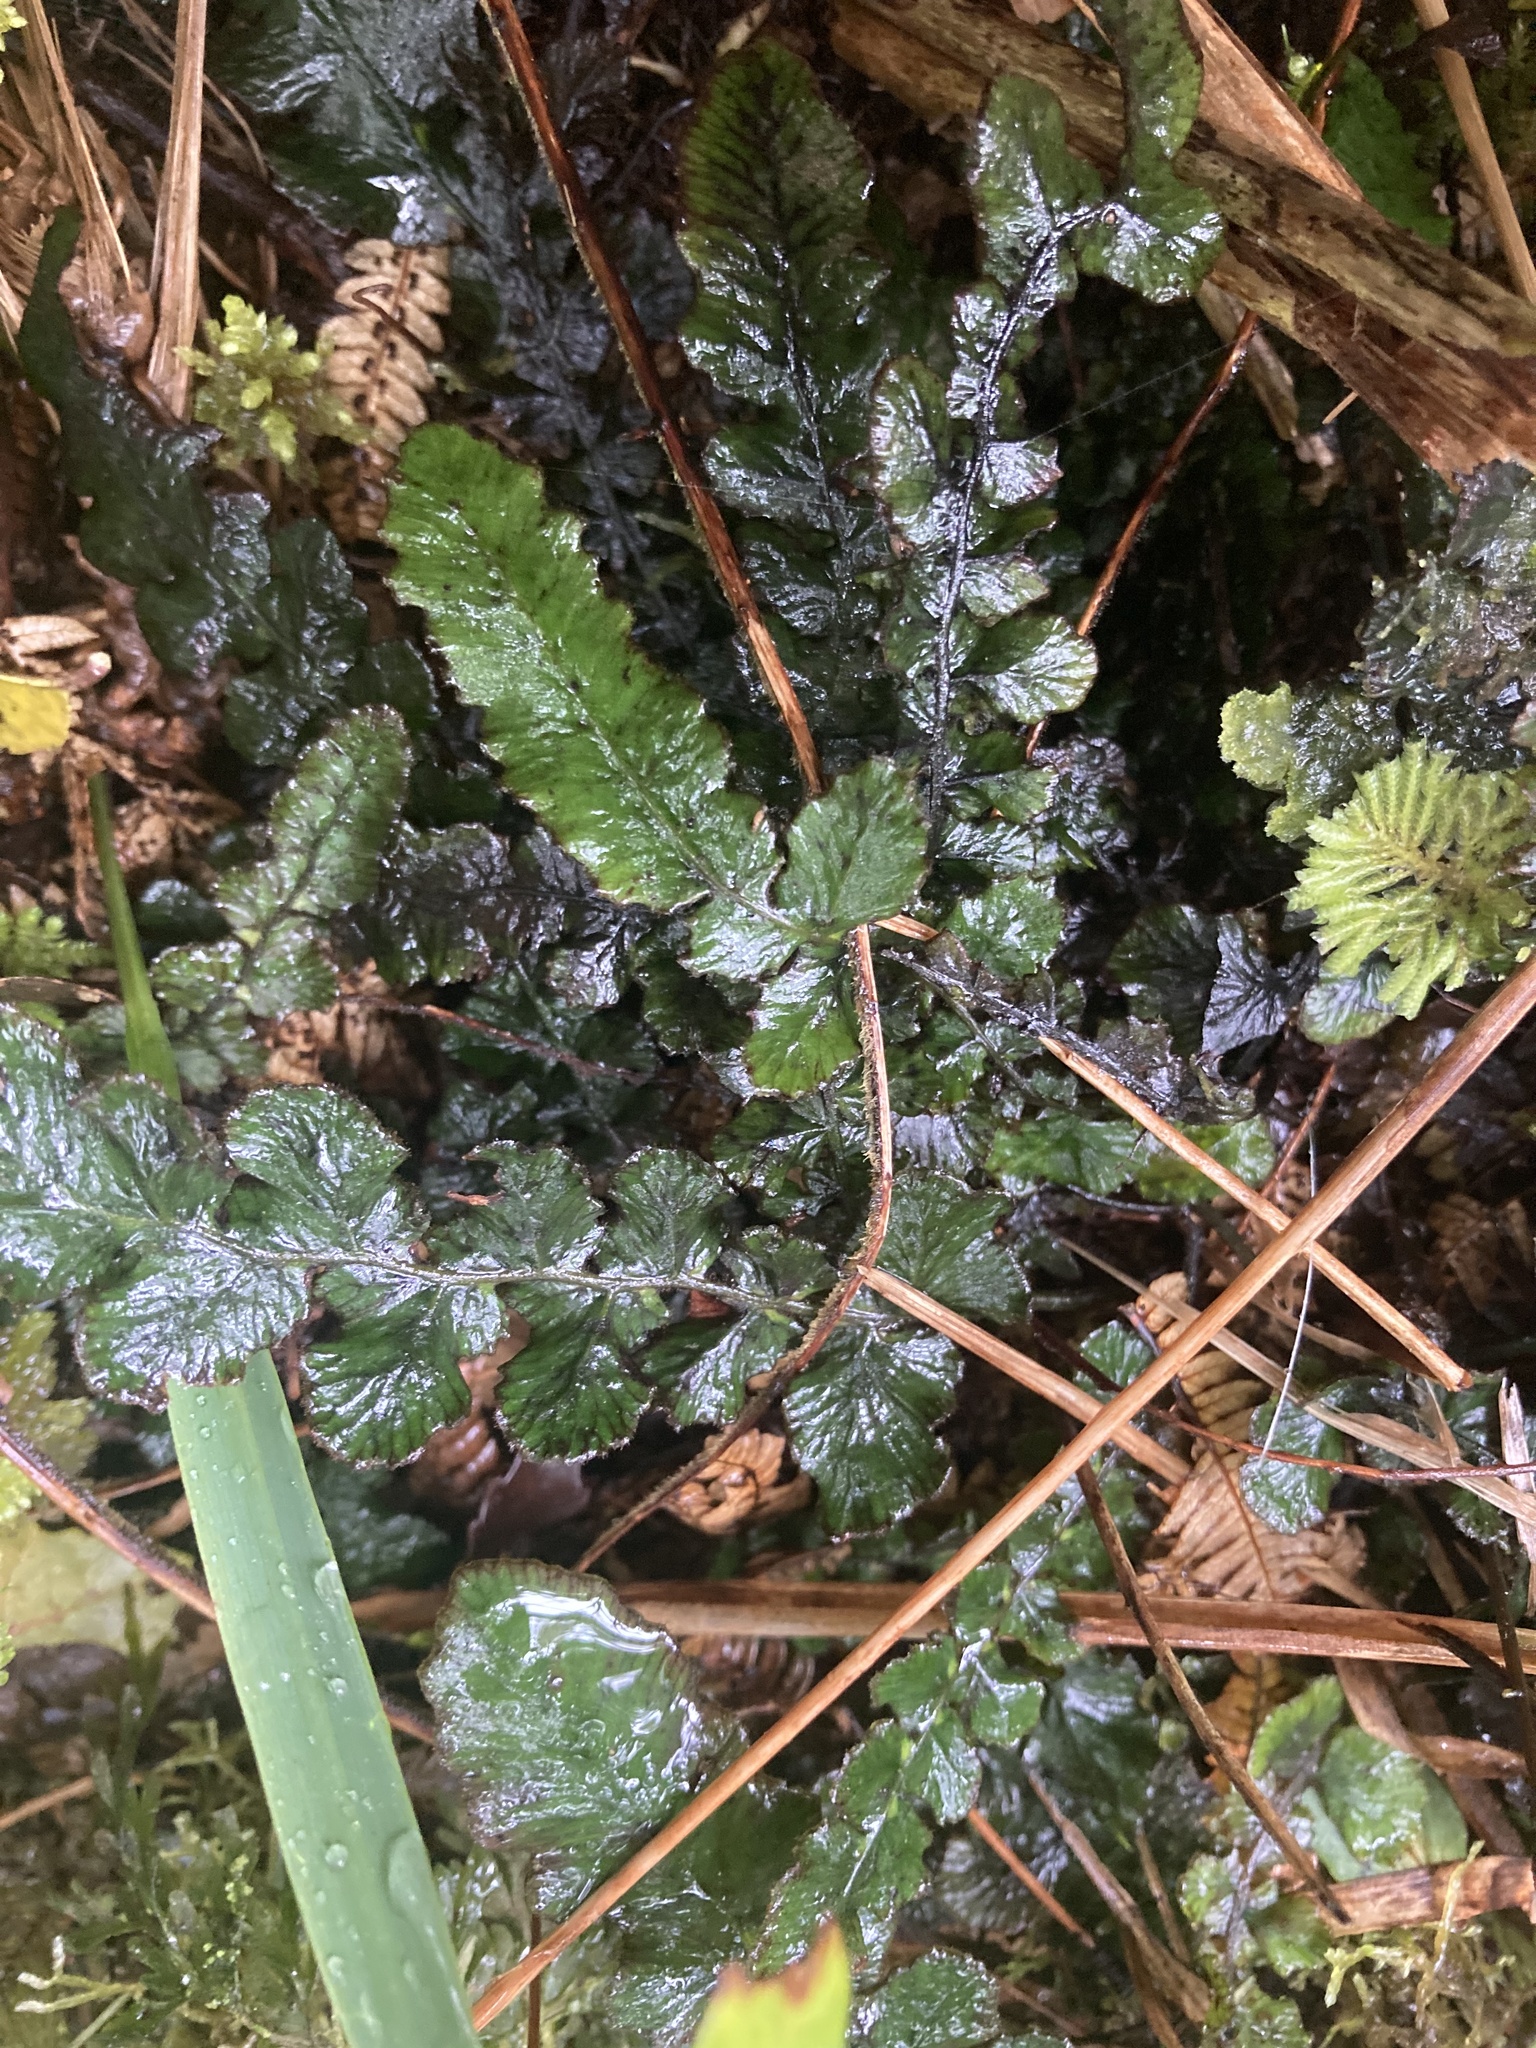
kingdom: Plantae
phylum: Tracheophyta
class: Polypodiopsida
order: Polypodiales
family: Blechnaceae
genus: Cranfillia
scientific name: Cranfillia nigra
